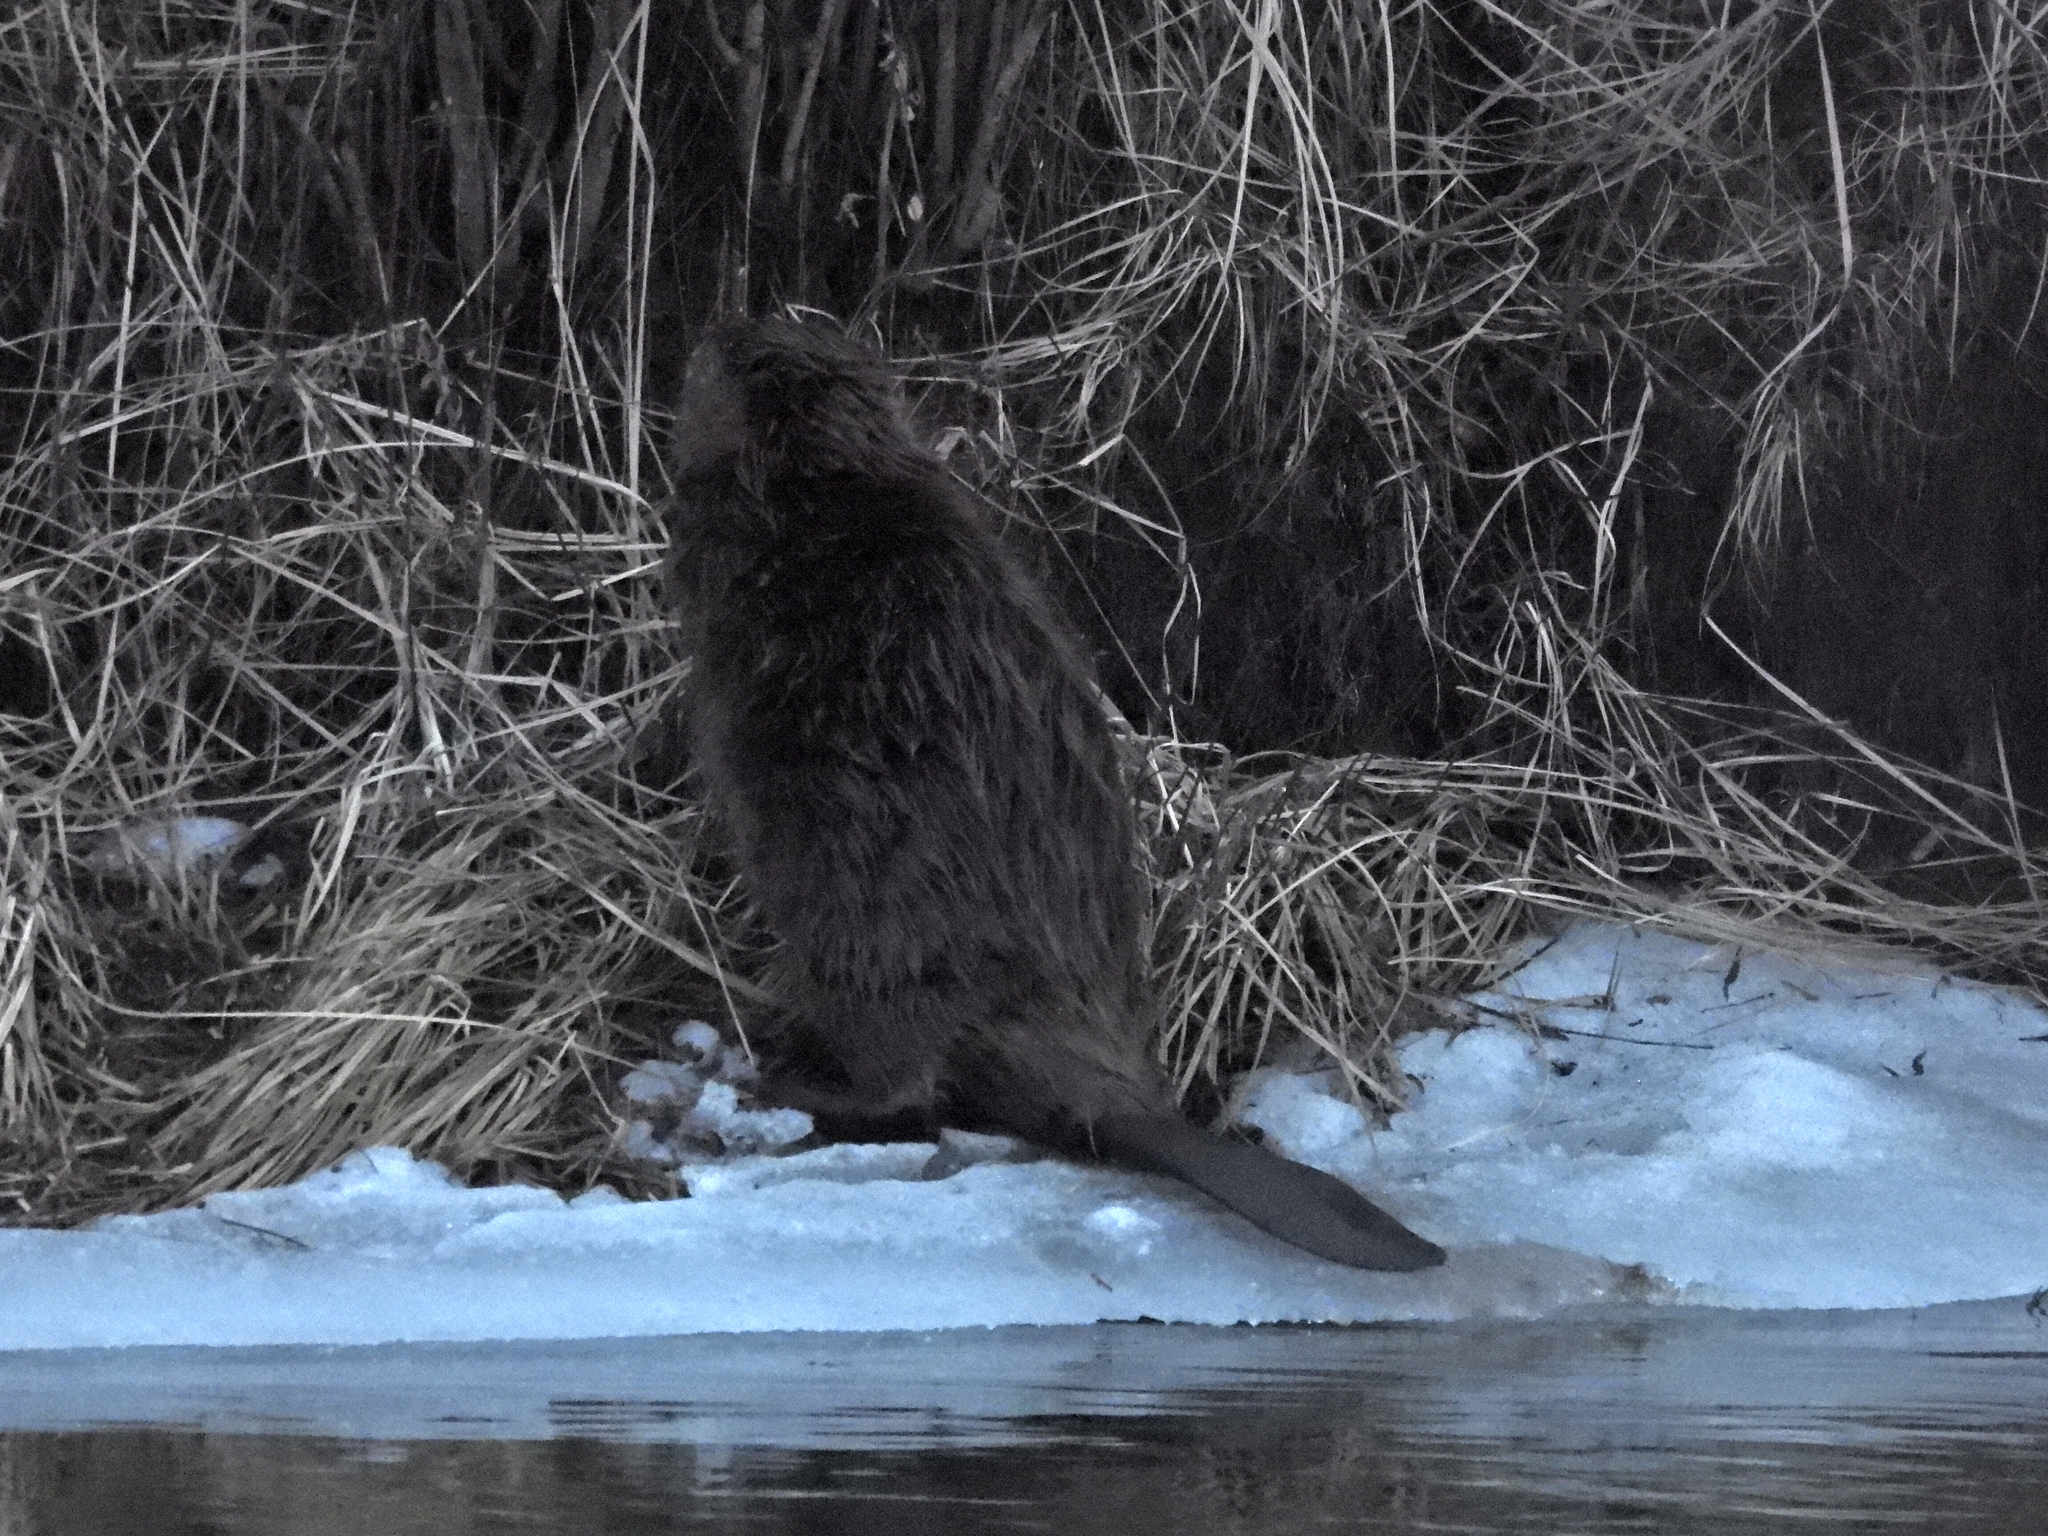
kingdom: Animalia
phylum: Chordata
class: Mammalia
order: Rodentia
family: Castoridae
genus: Castor
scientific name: Castor canadensis
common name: American beaver
